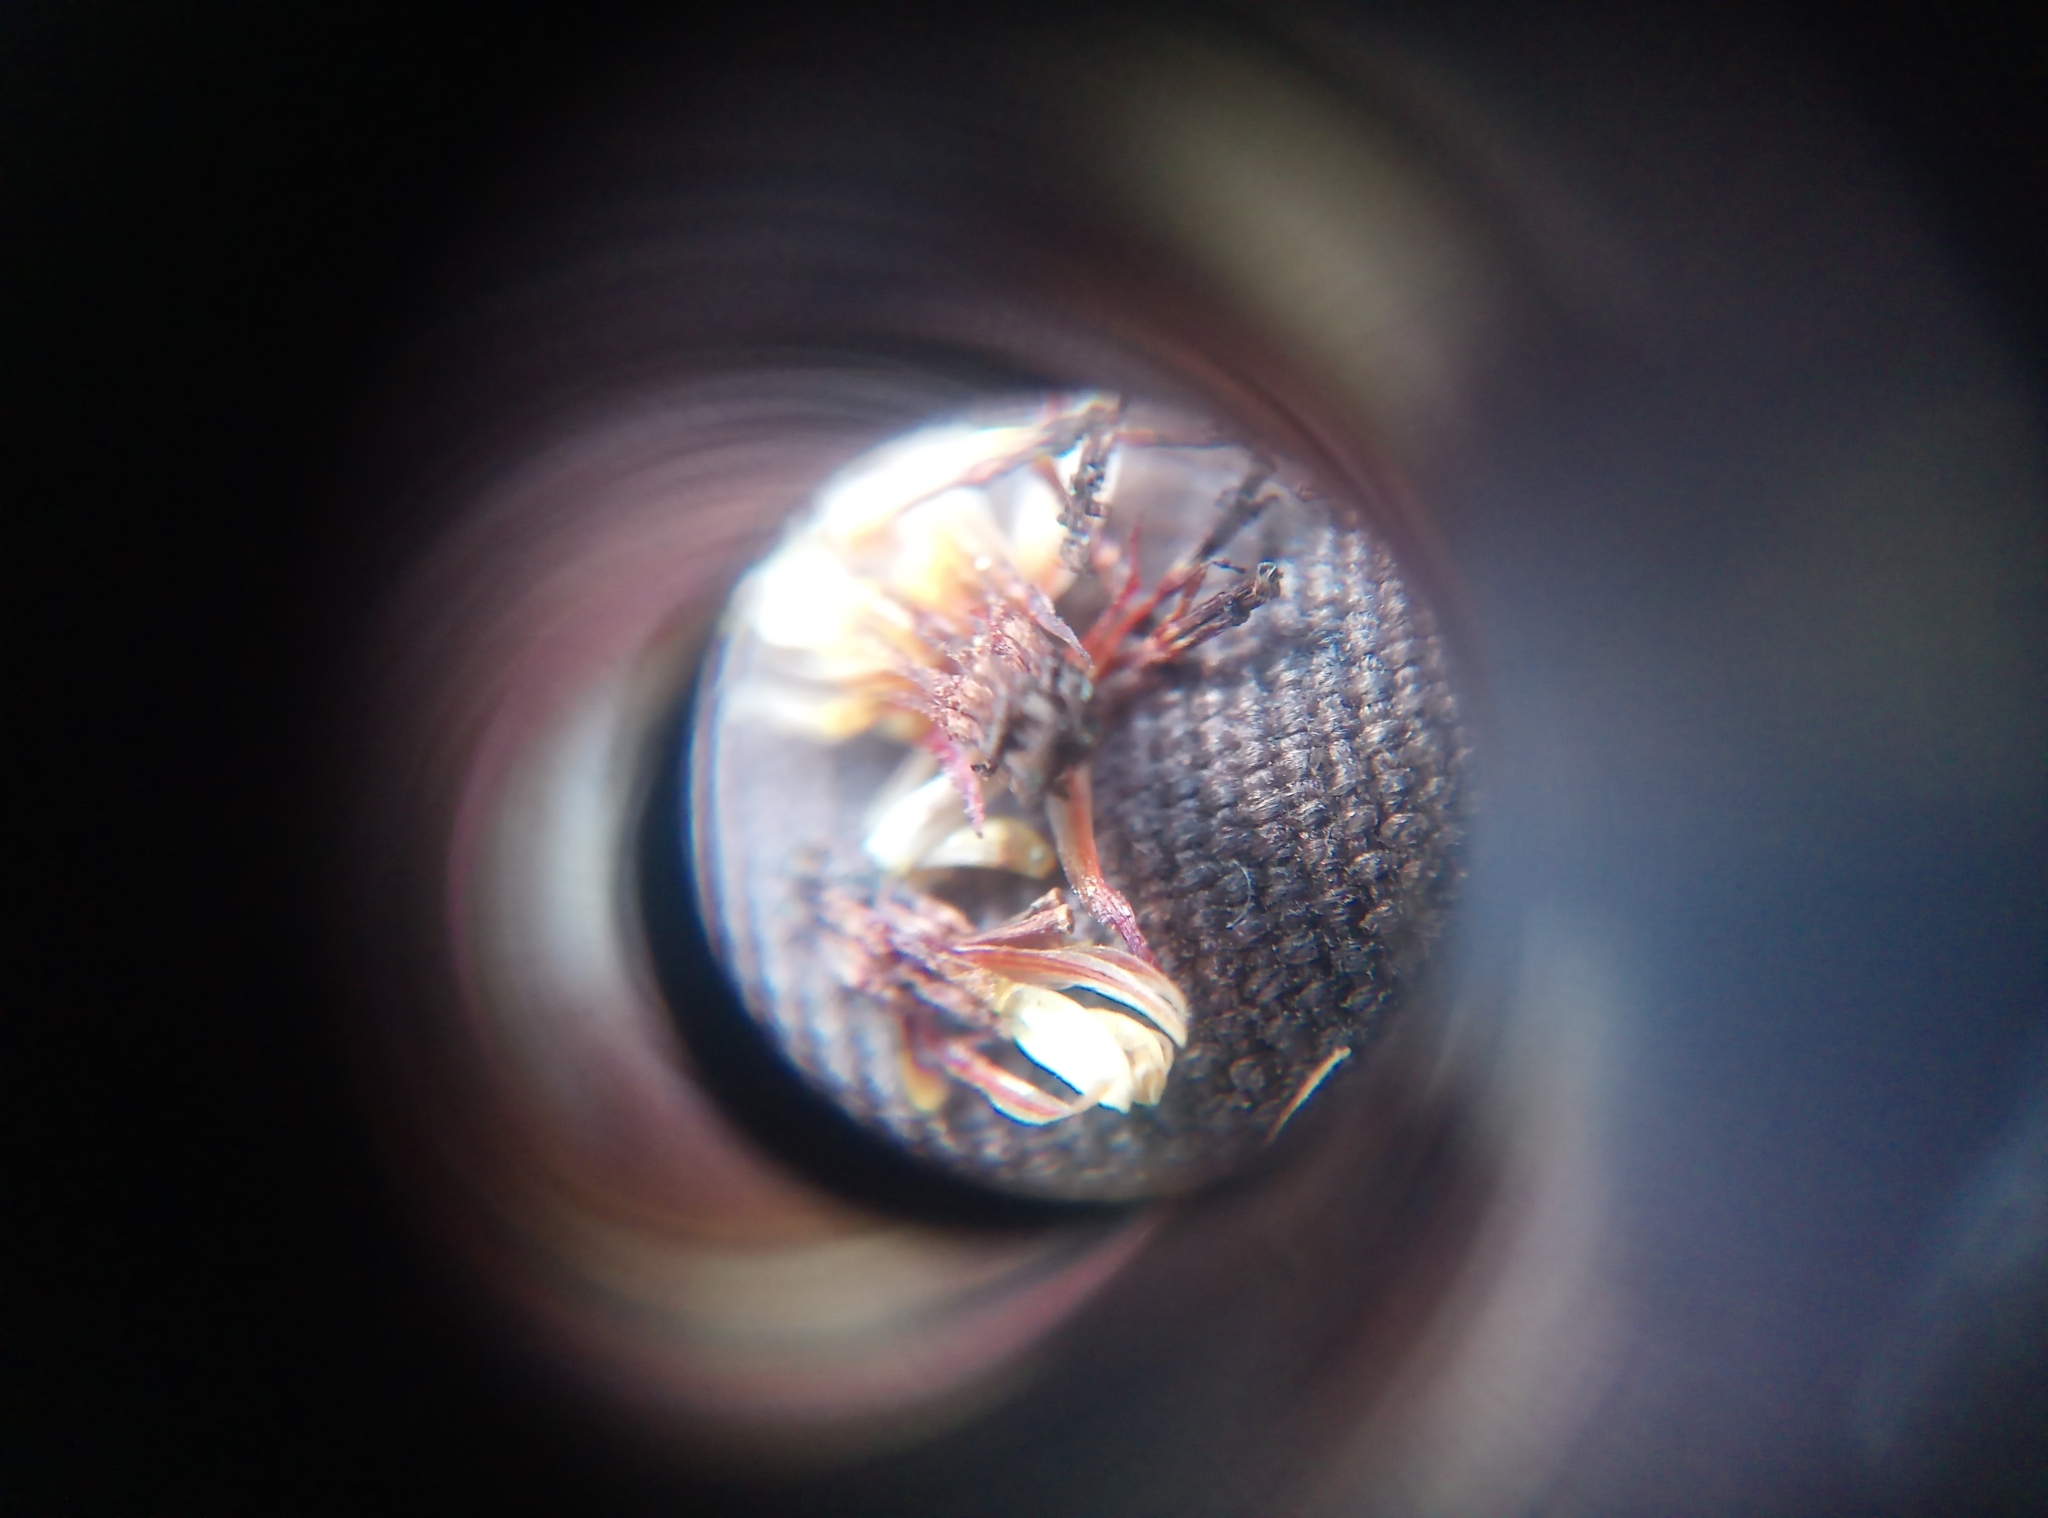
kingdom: Plantae
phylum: Tracheophyta
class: Magnoliopsida
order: Asterales
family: Asteraceae
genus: Coreopsis
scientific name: Coreopsis tinctoria
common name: Garden tickseed
